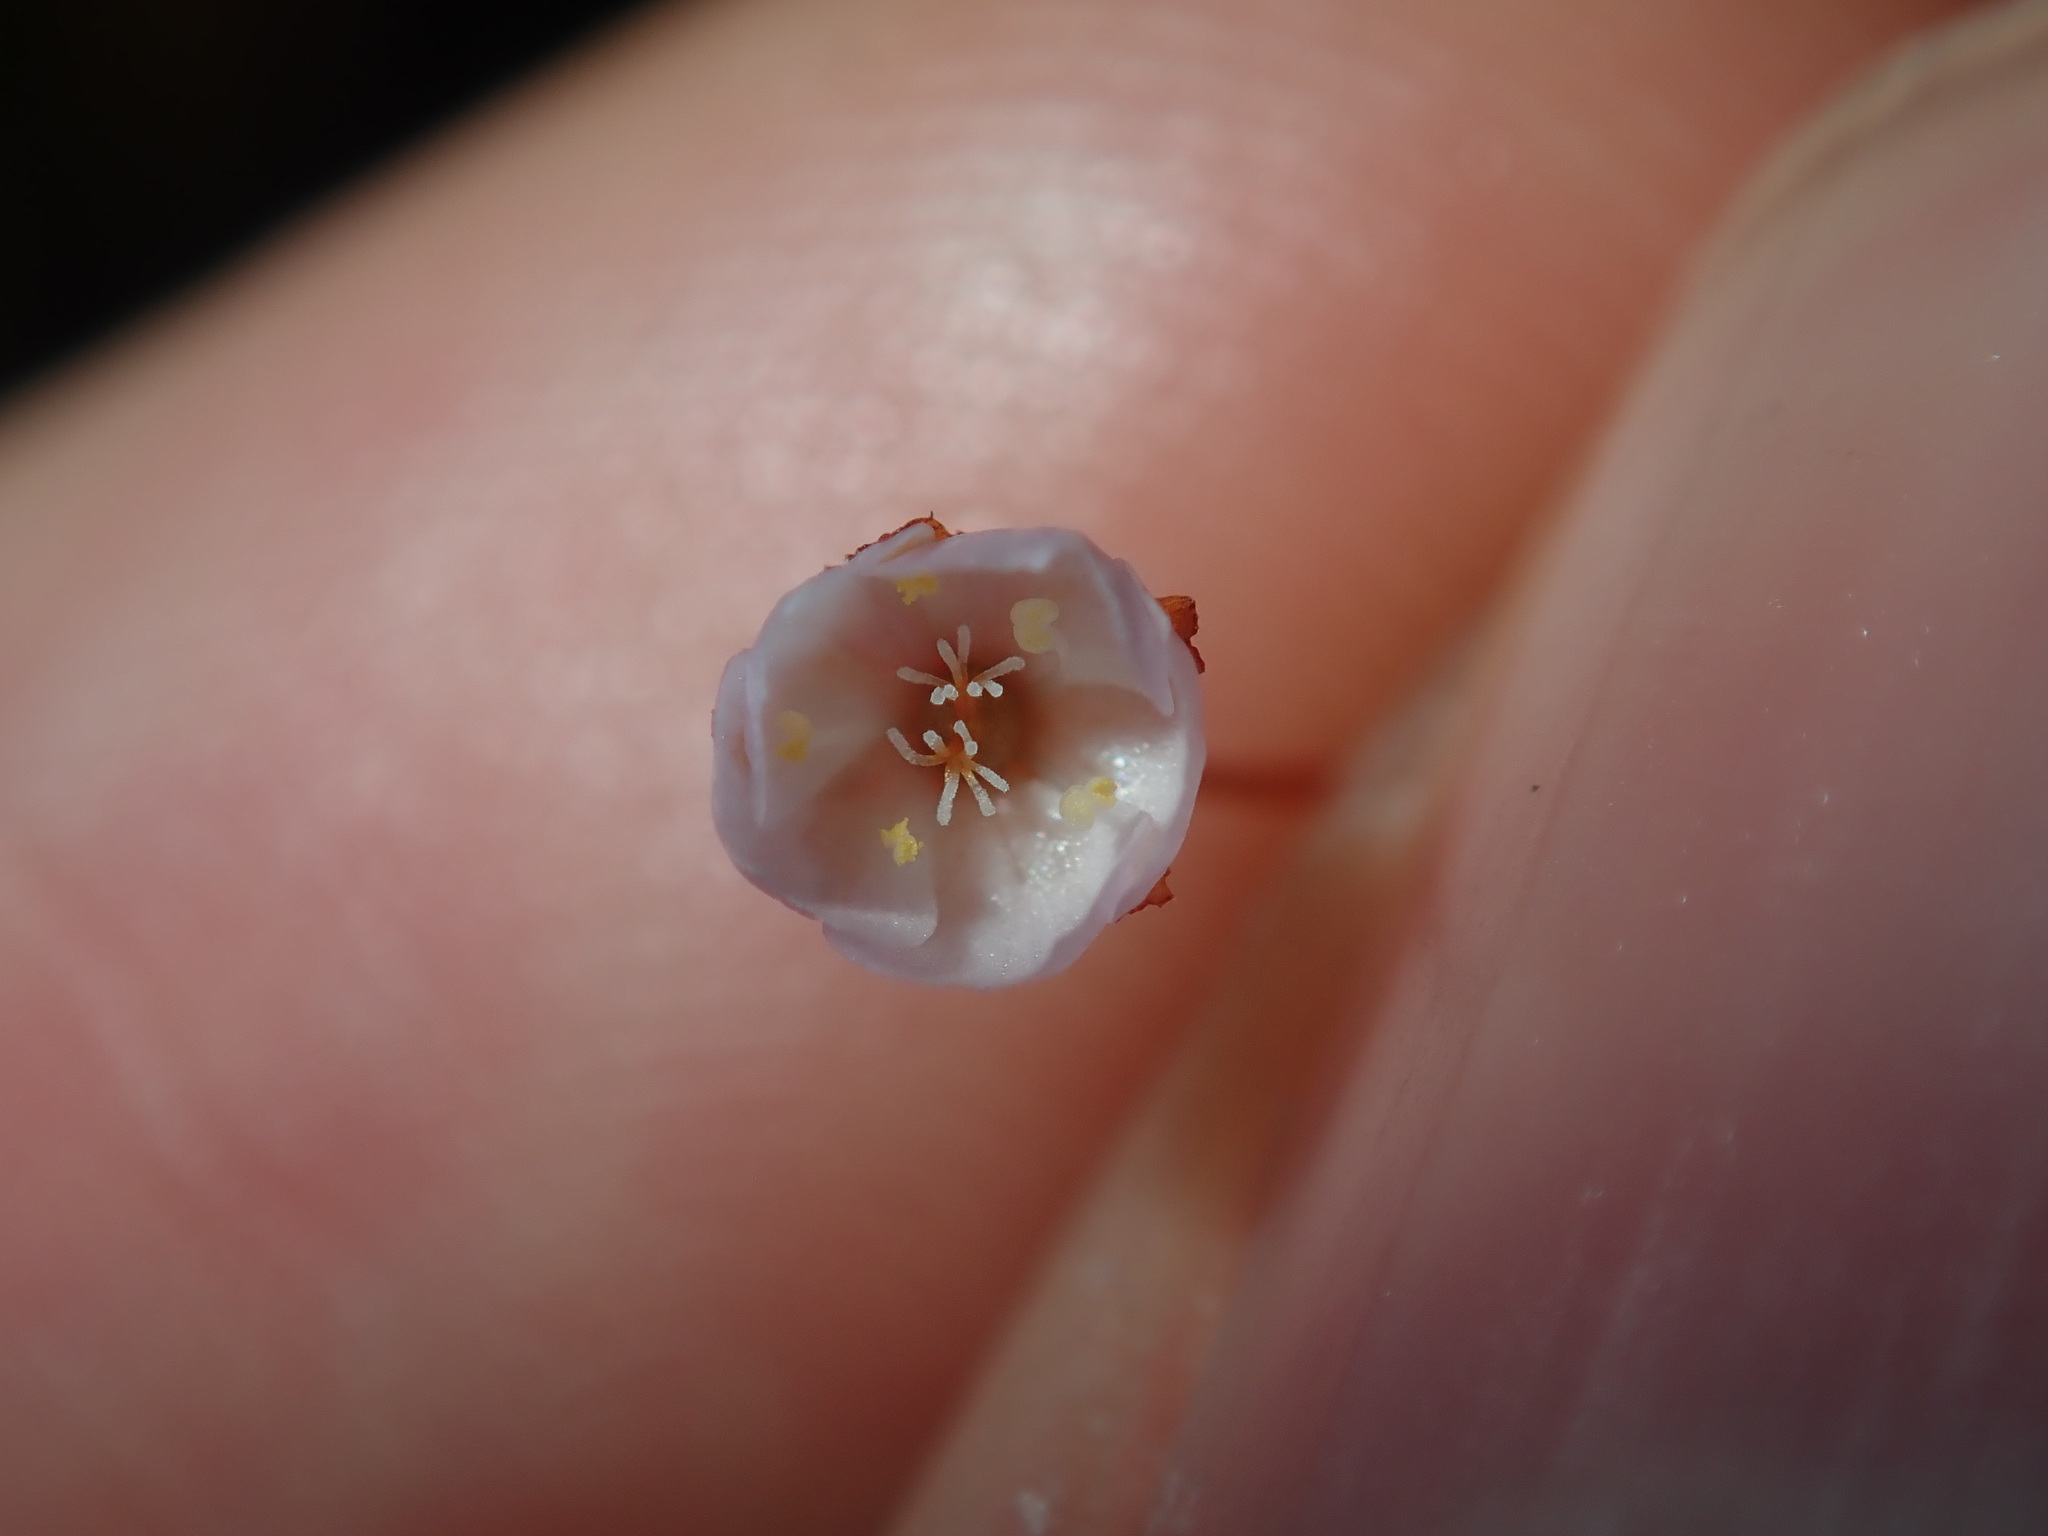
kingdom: Plantae
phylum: Tracheophyta
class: Magnoliopsida
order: Caryophyllales
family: Droseraceae
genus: Drosera
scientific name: Drosera peltata
